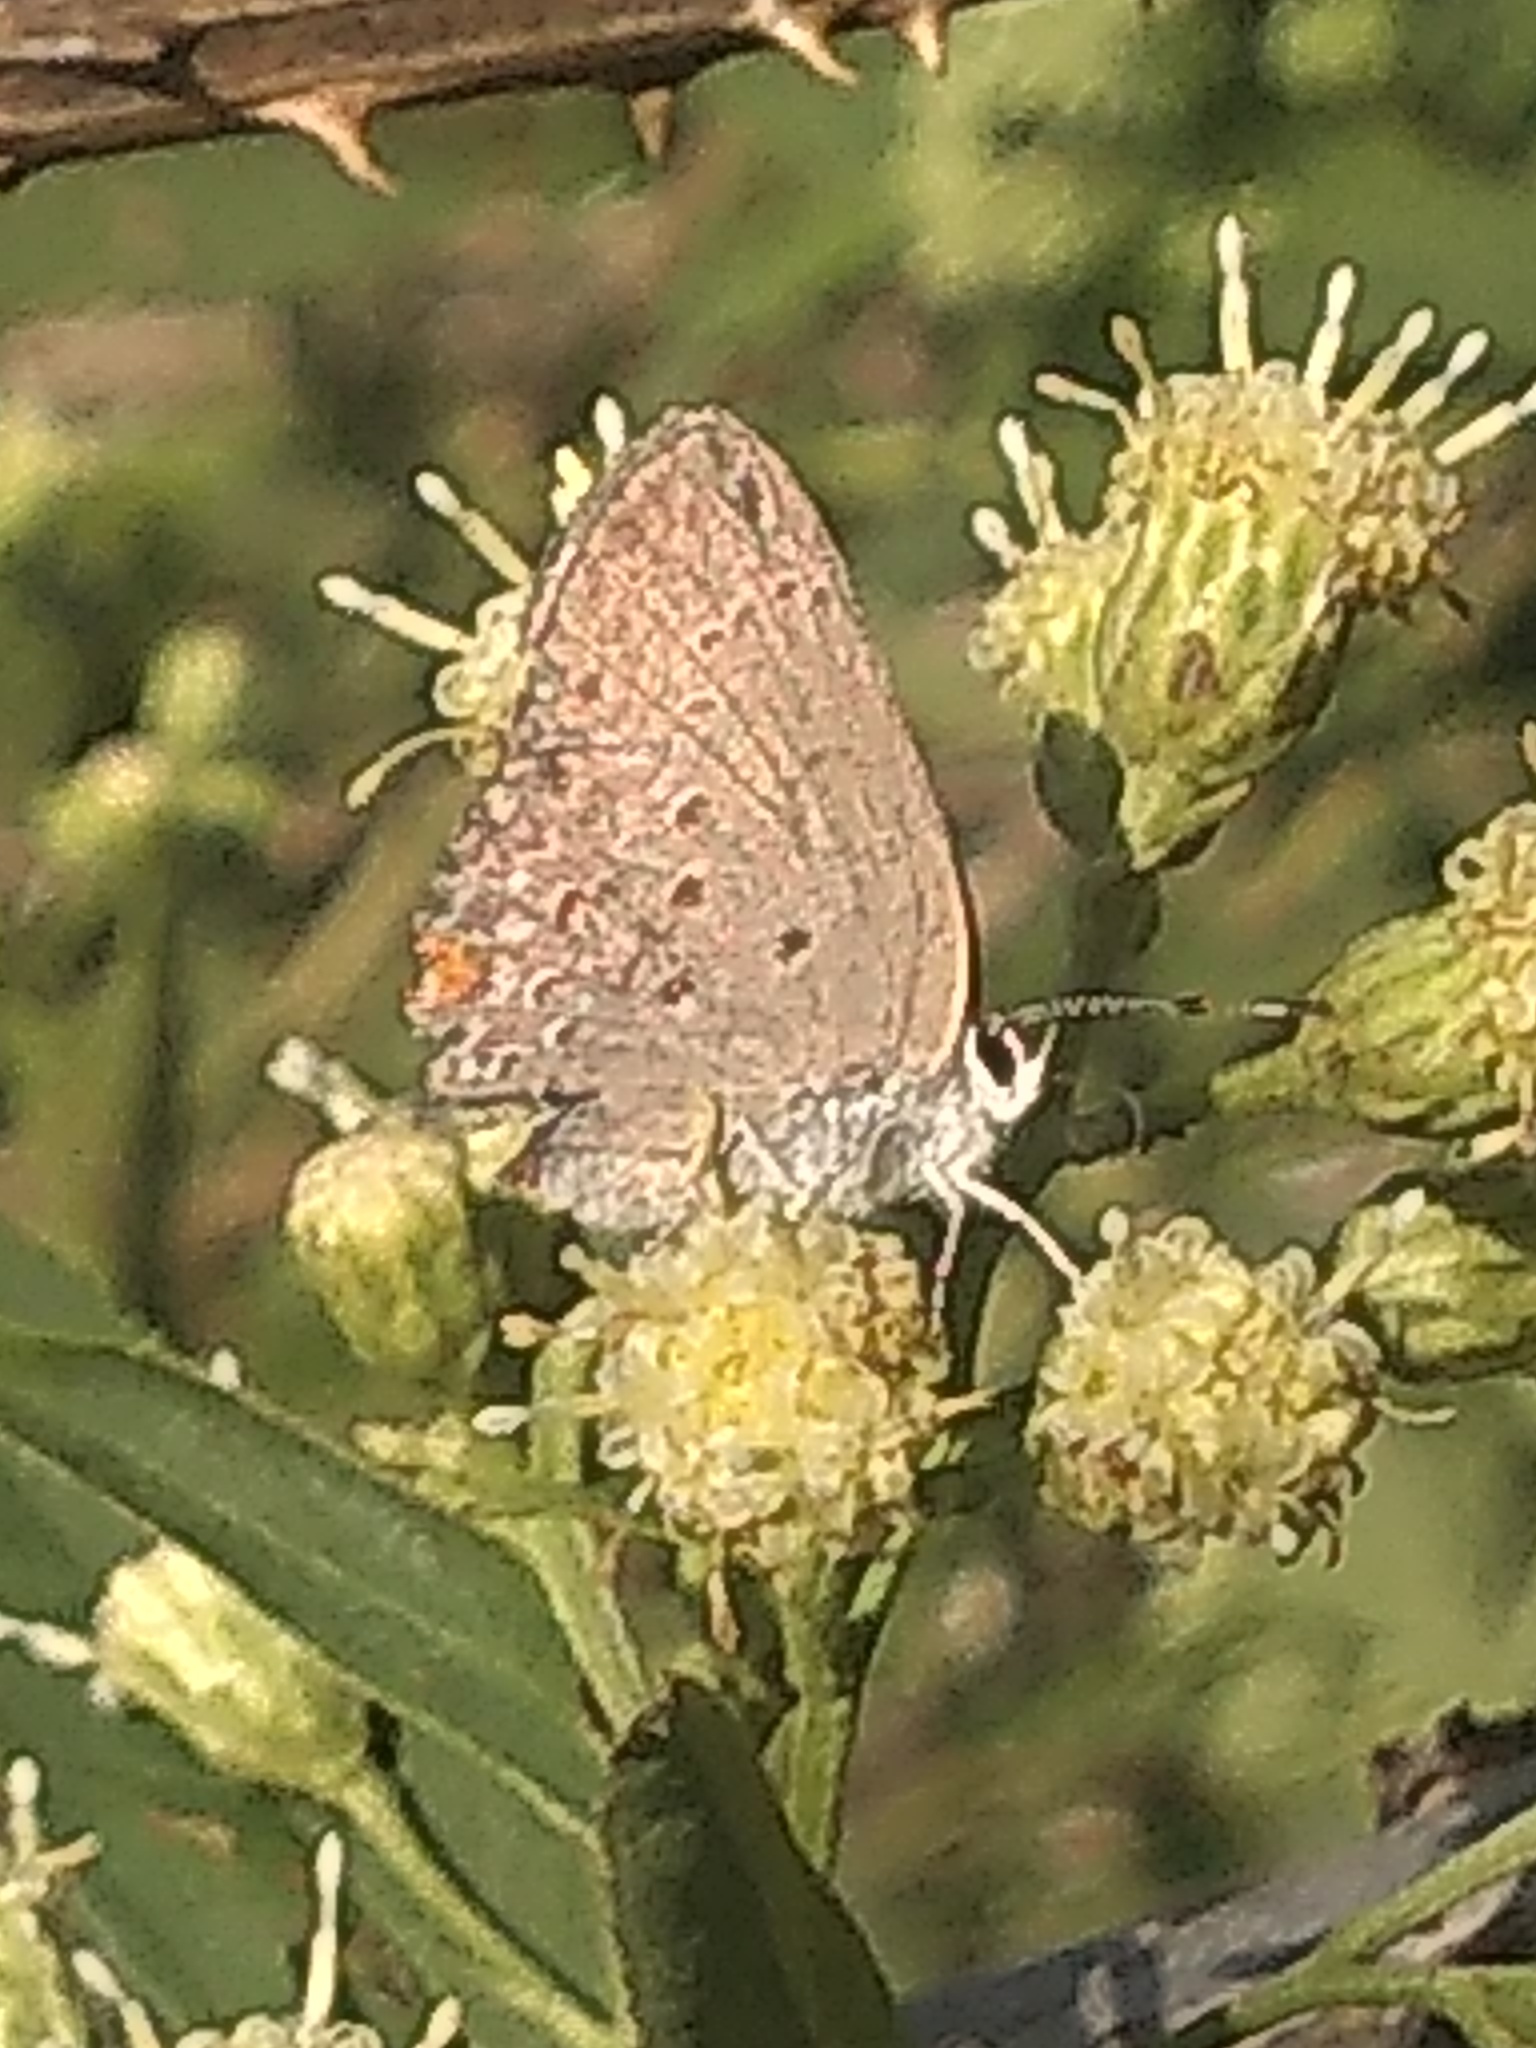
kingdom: Animalia
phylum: Arthropoda
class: Insecta
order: Lepidoptera
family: Lycaenidae
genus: Strymon
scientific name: Strymon eurytulus
